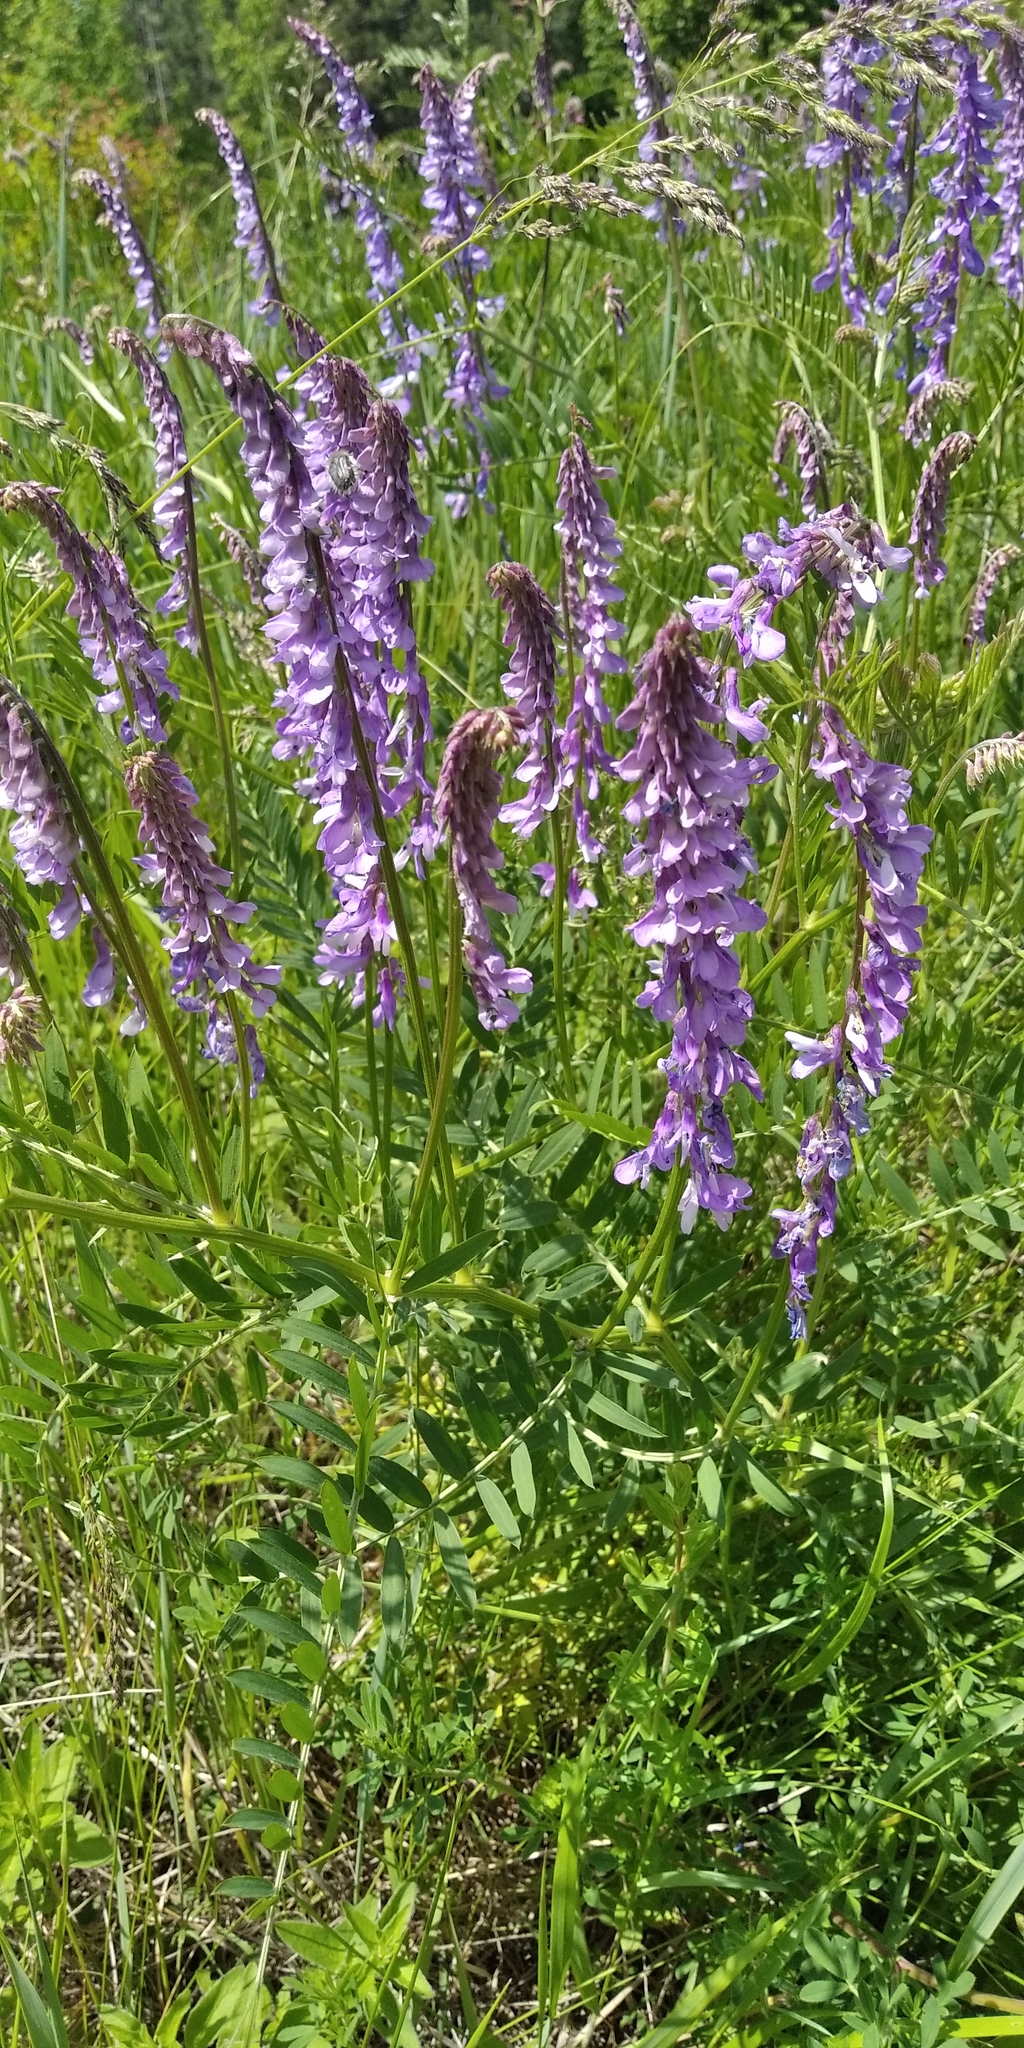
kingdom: Plantae
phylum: Tracheophyta
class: Magnoliopsida
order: Fabales
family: Fabaceae
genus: Vicia
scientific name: Vicia tenuifolia
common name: Fine-leaved vetch
